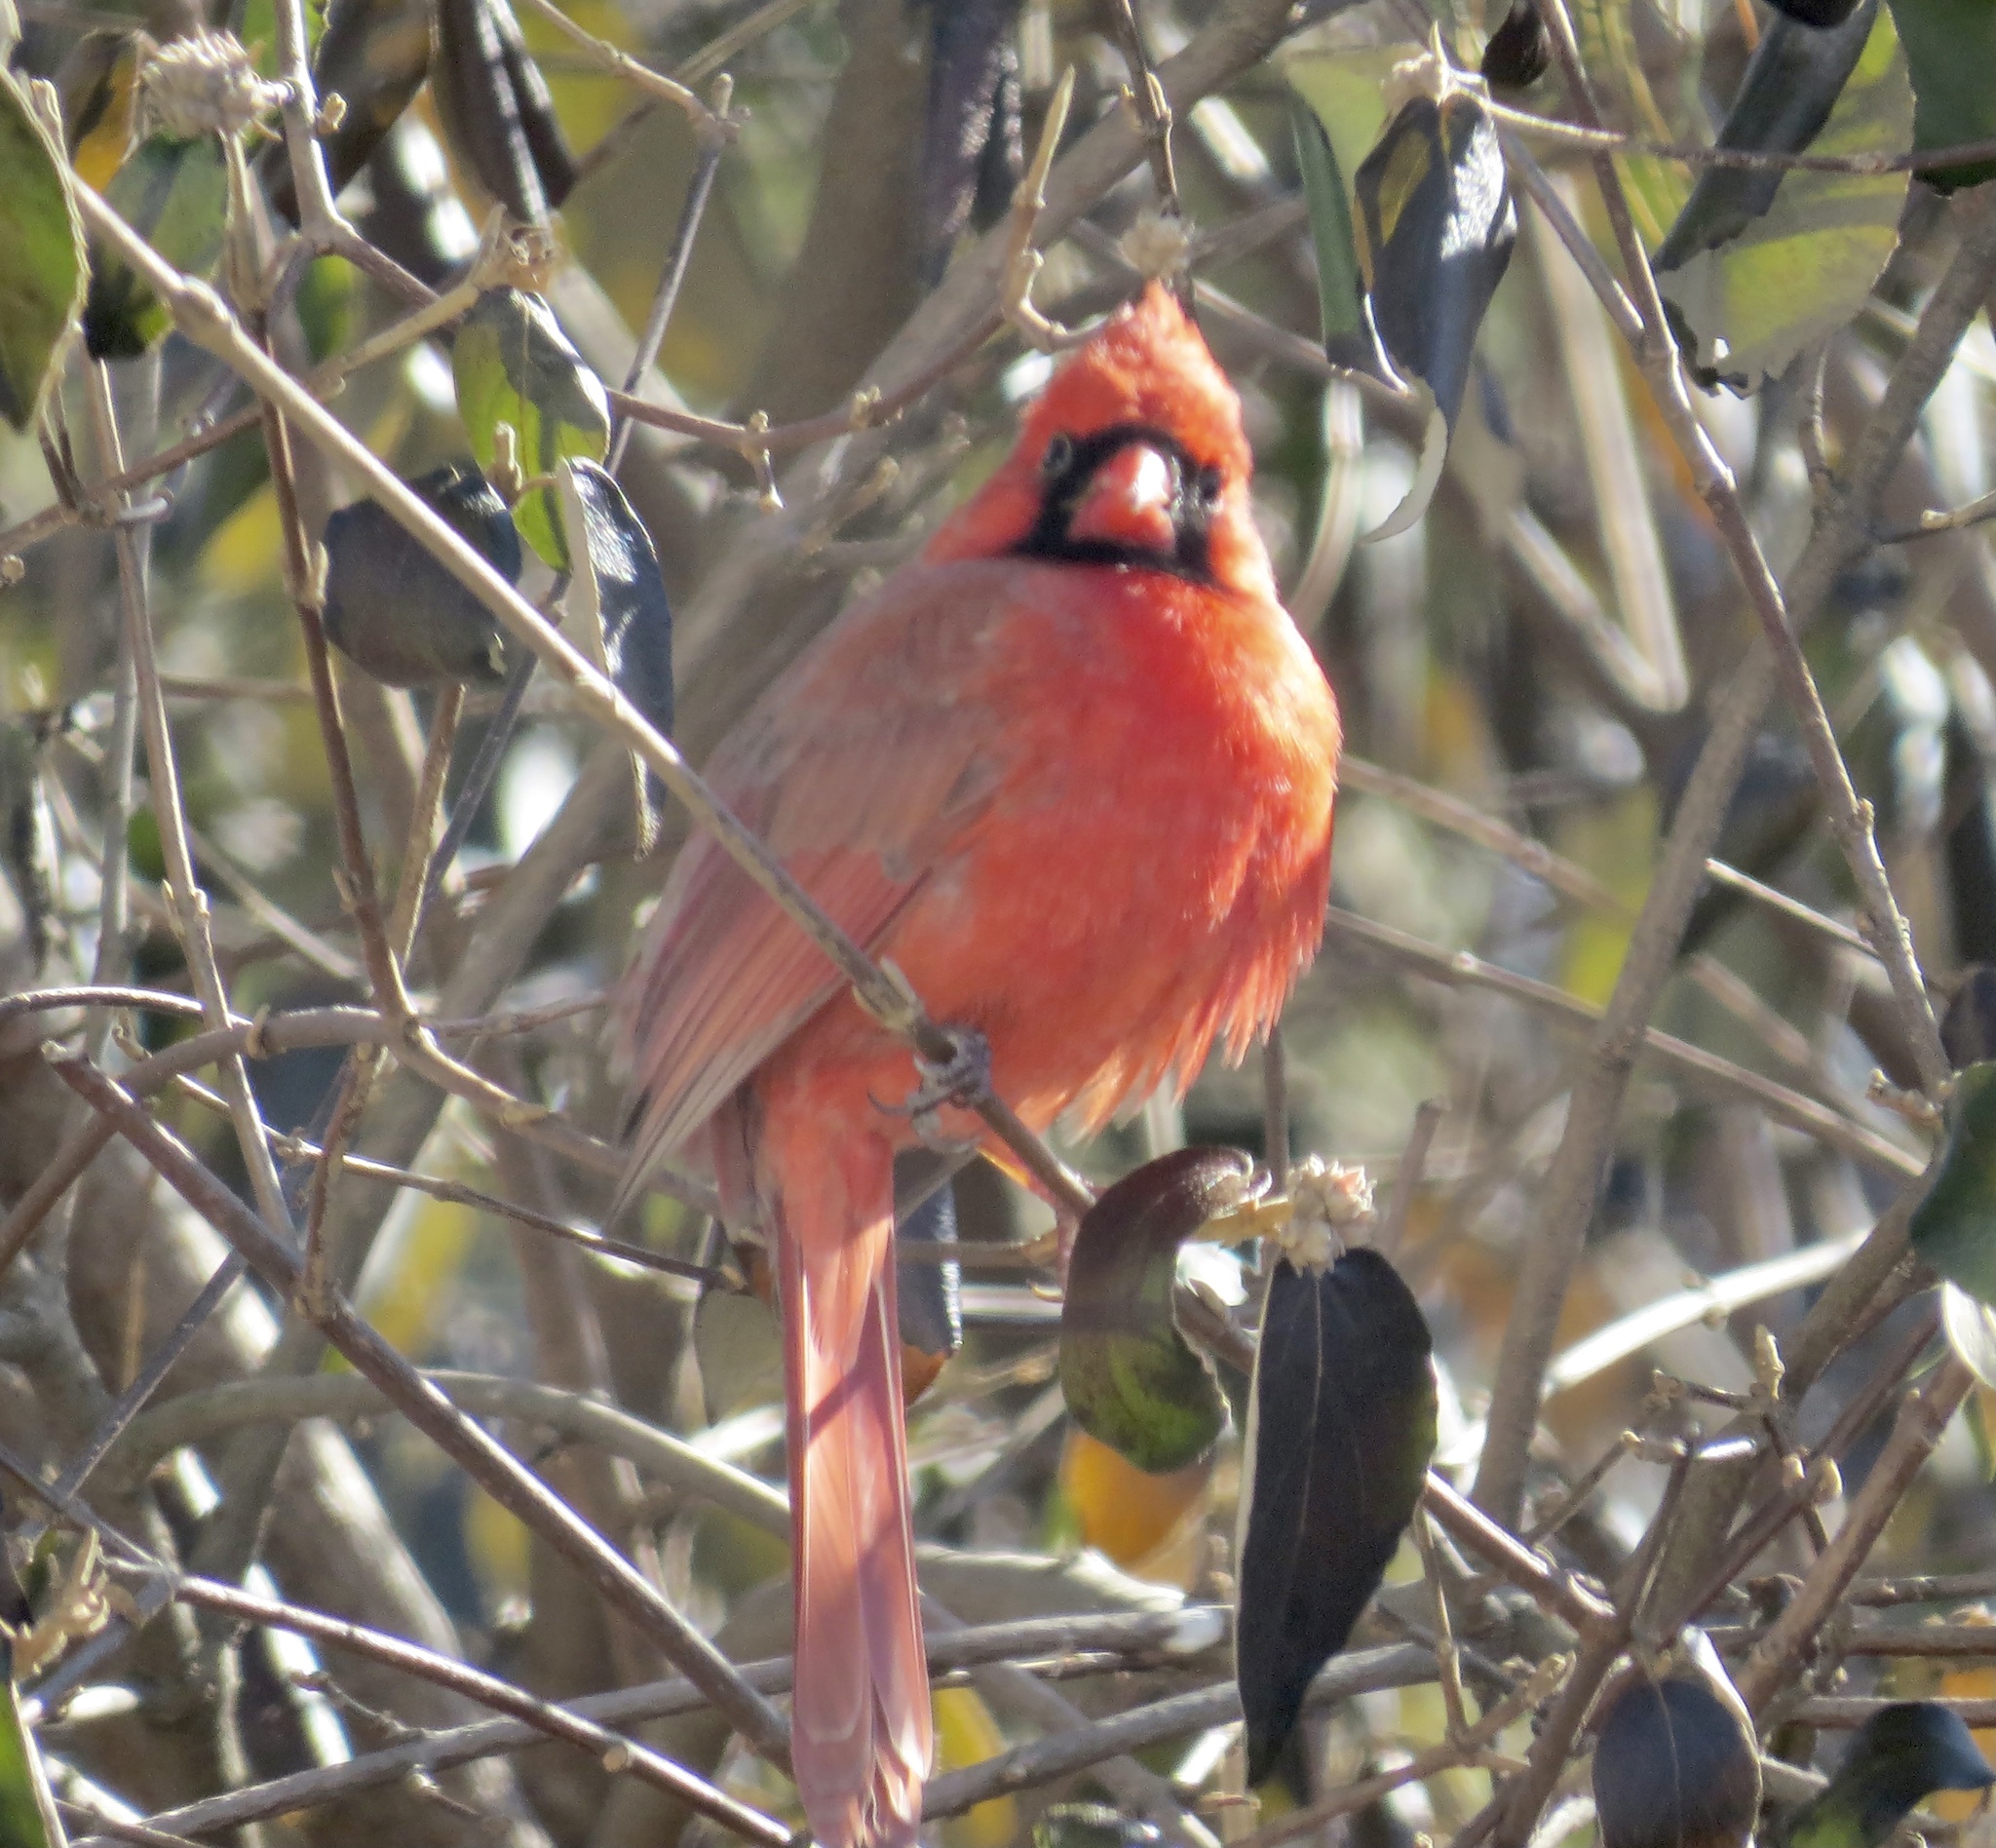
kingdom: Animalia
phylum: Chordata
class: Aves
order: Passeriformes
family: Cardinalidae
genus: Cardinalis
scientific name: Cardinalis cardinalis
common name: Northern cardinal
